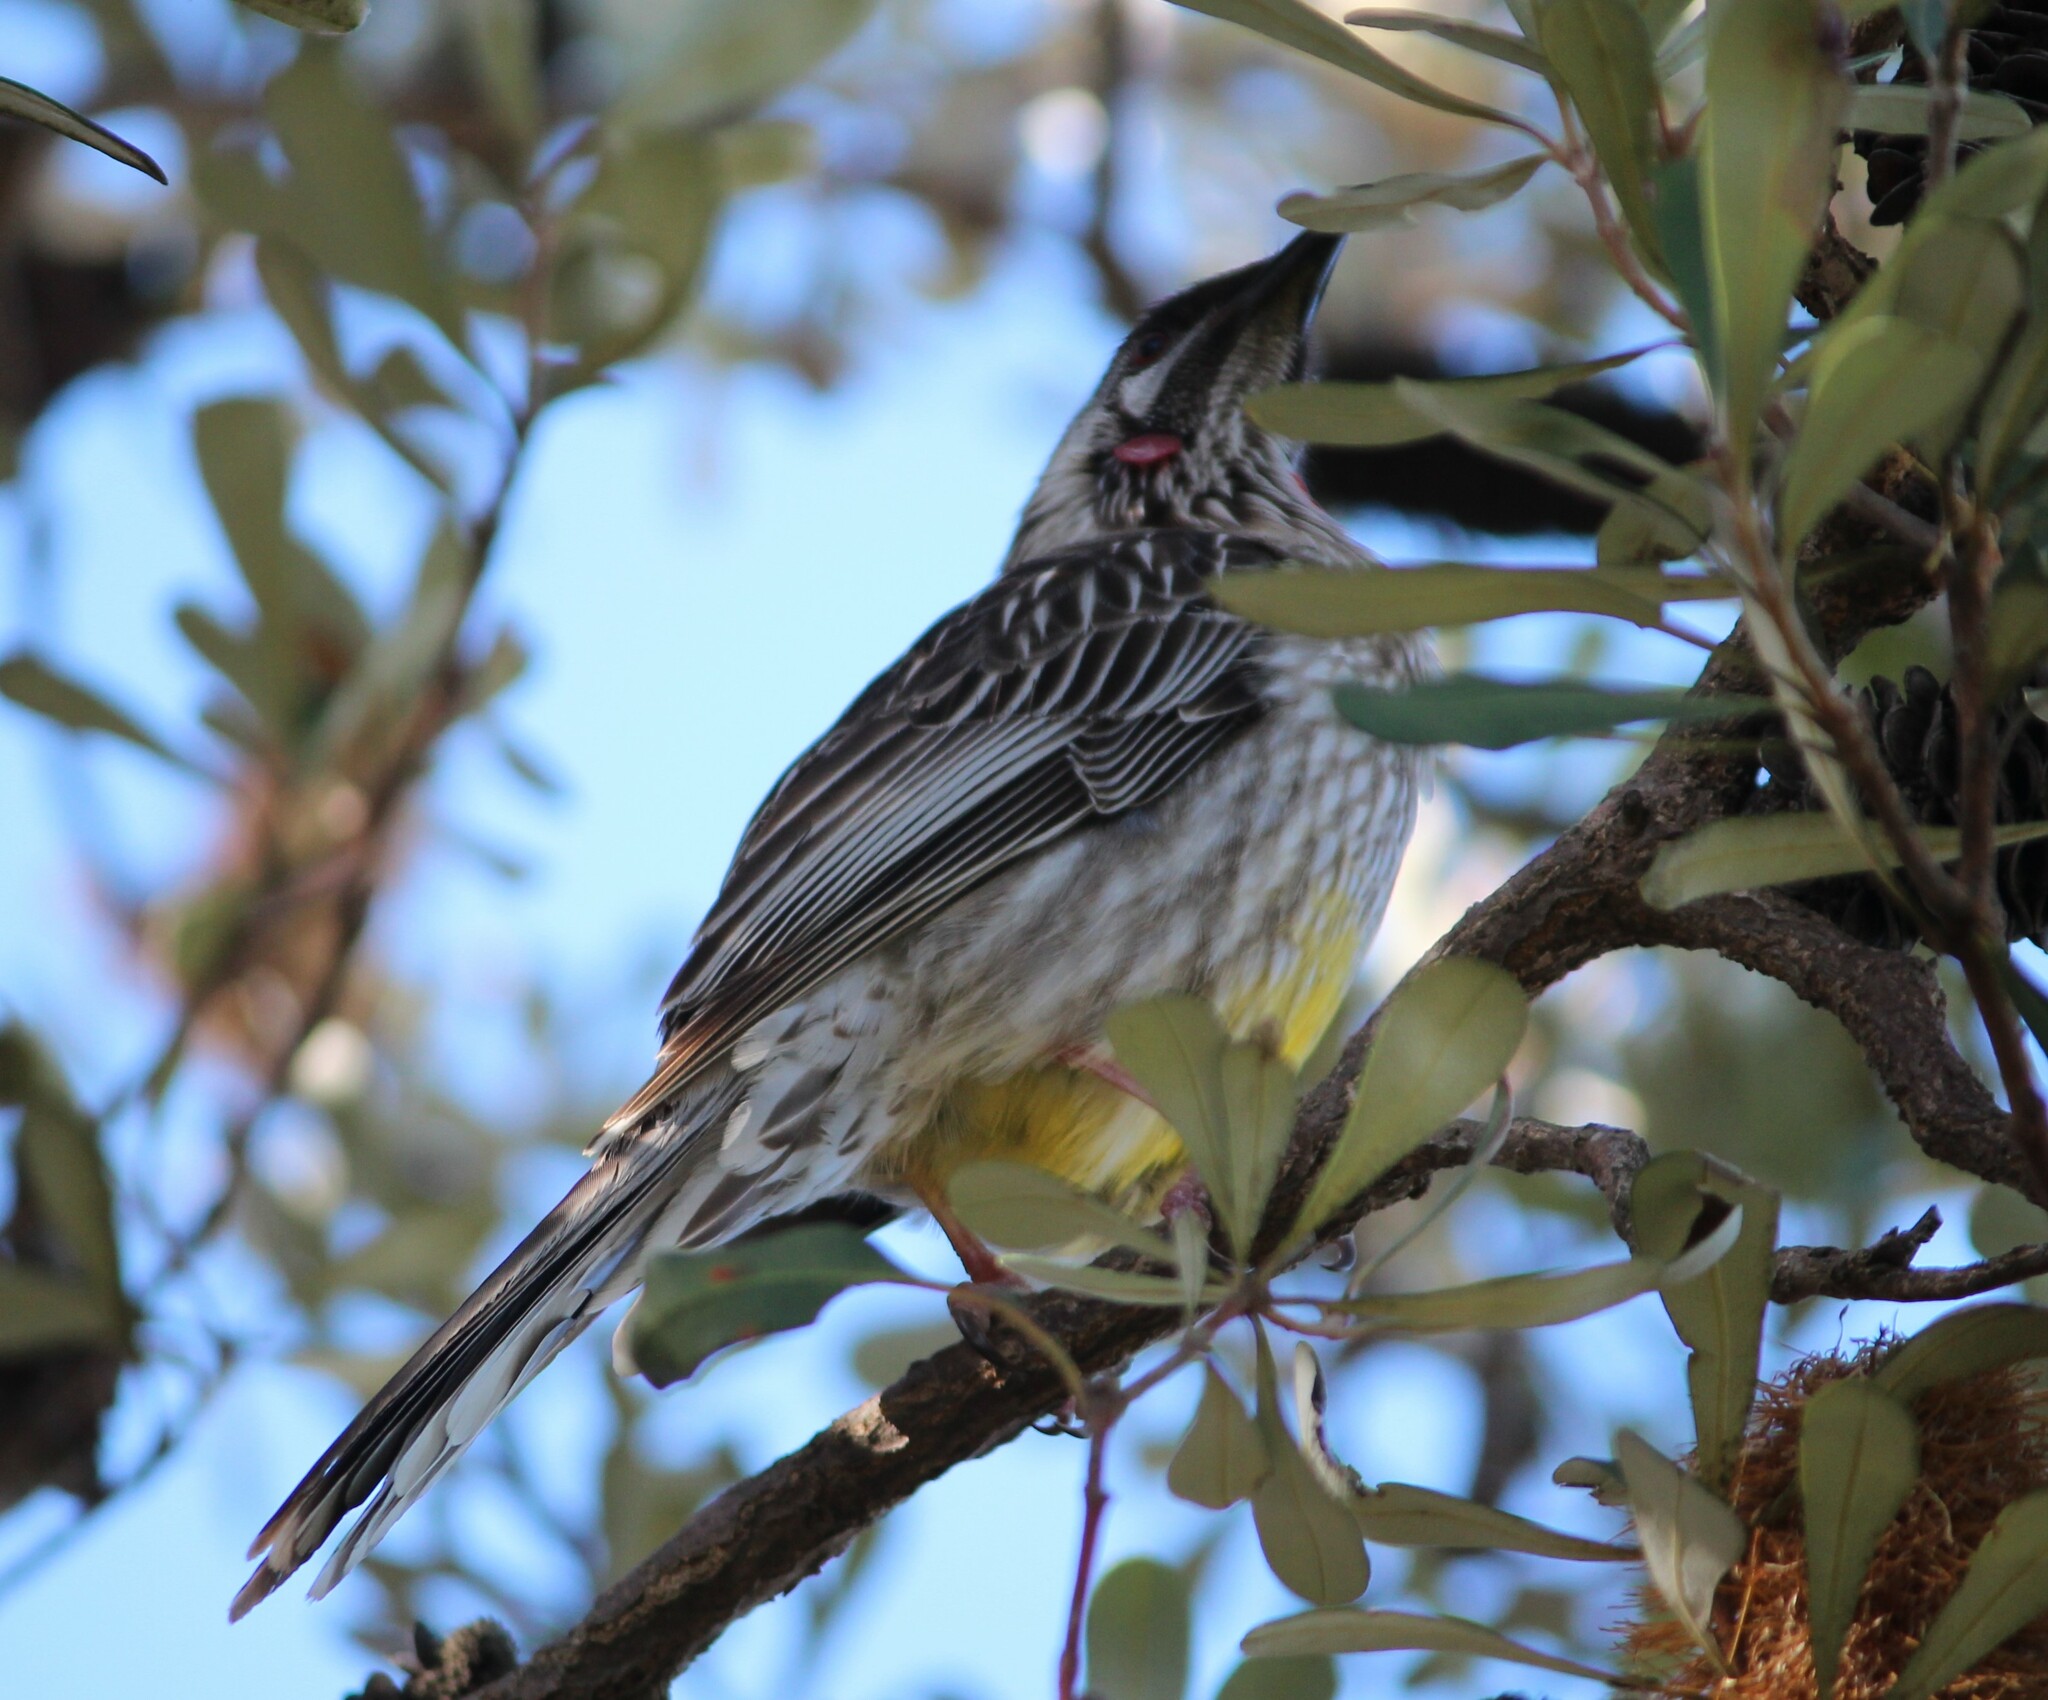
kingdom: Animalia
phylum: Chordata
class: Aves
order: Passeriformes
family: Meliphagidae
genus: Anthochaera
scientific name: Anthochaera carunculata
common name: Red wattlebird
